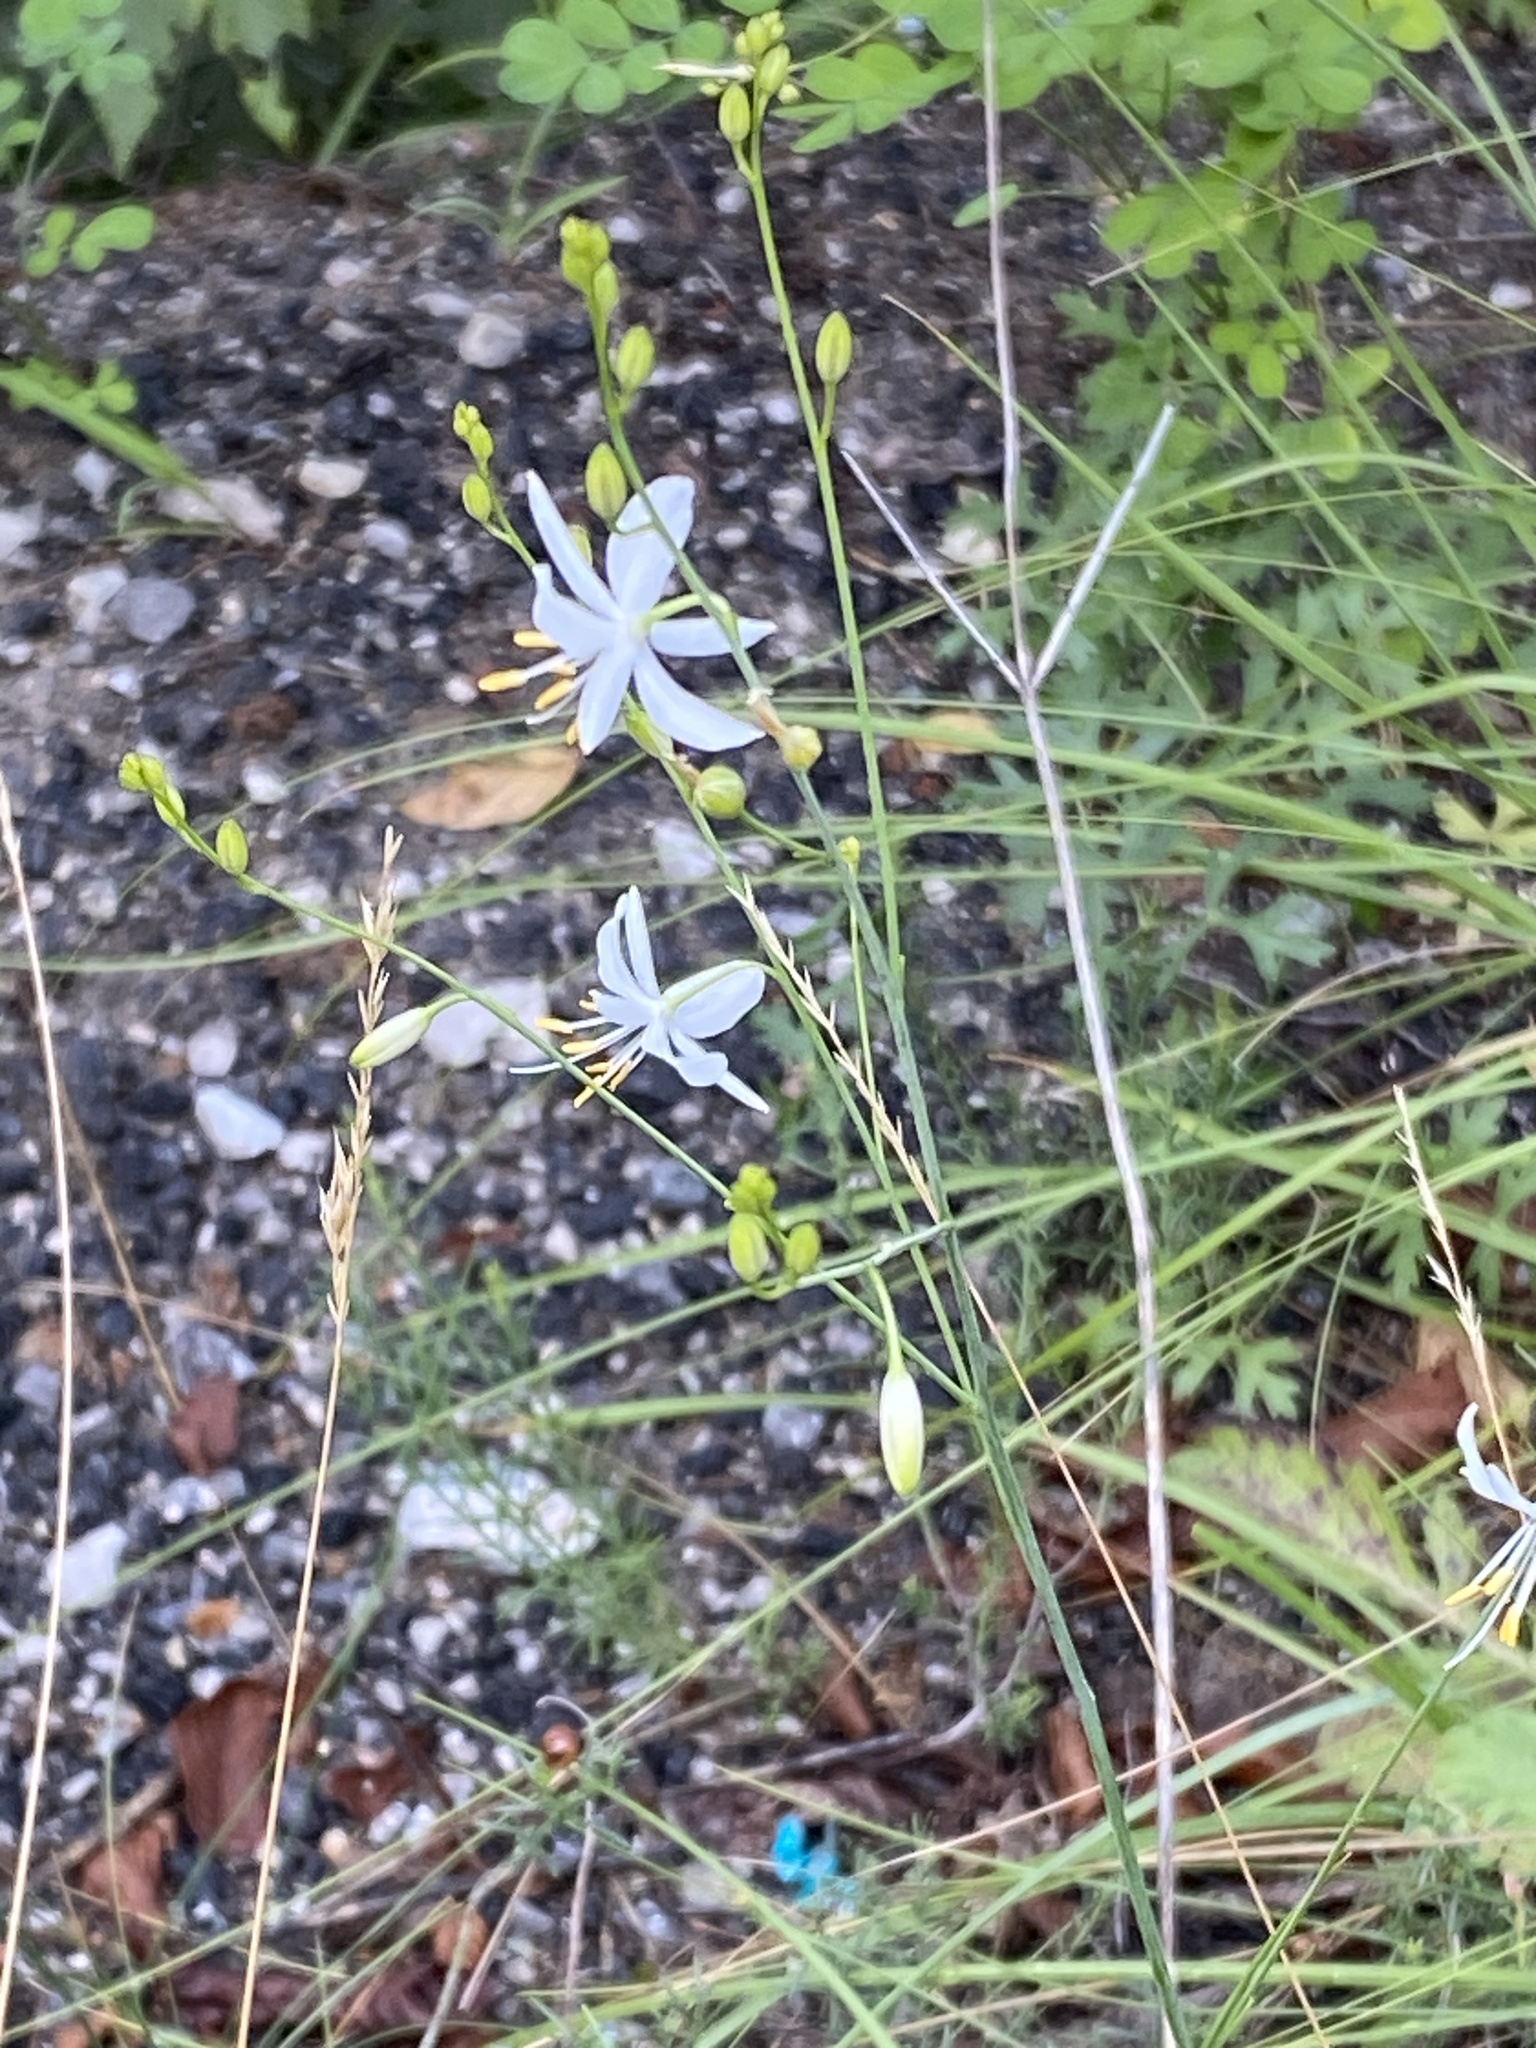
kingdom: Plantae
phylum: Tracheophyta
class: Liliopsida
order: Asparagales
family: Asparagaceae
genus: Anthericum
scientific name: Anthericum ramosum
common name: Branched st. bernard's-lily
